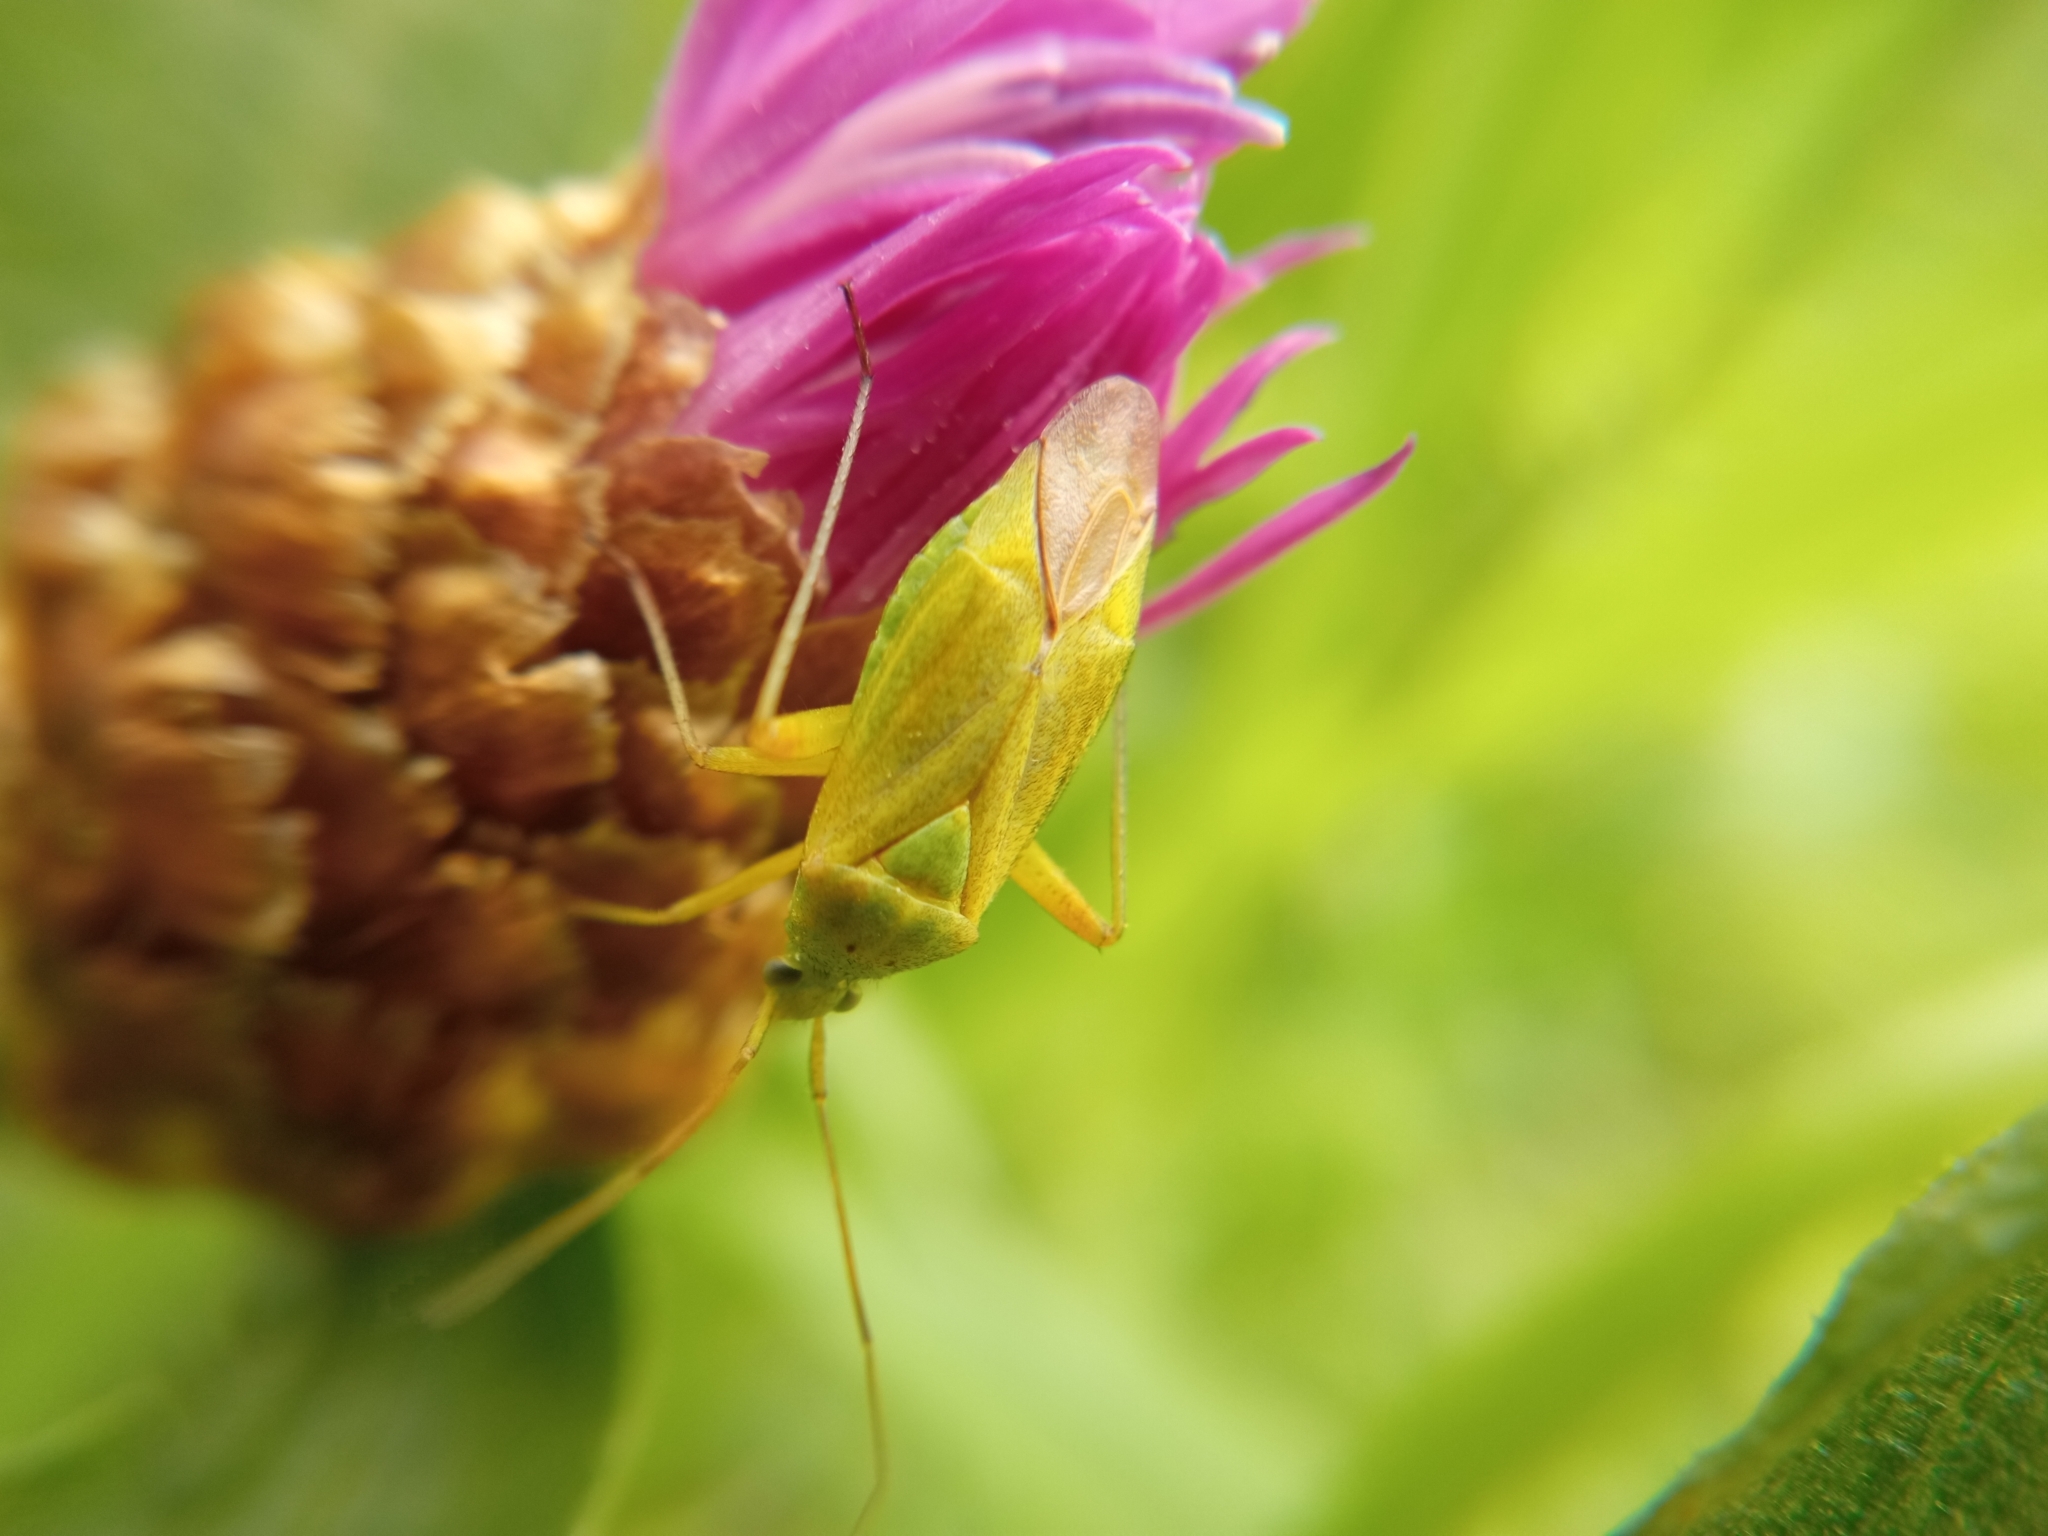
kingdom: Animalia
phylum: Arthropoda
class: Insecta
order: Hemiptera
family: Miridae
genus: Closterotomus
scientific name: Closterotomus norvegicus
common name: Plant bug
